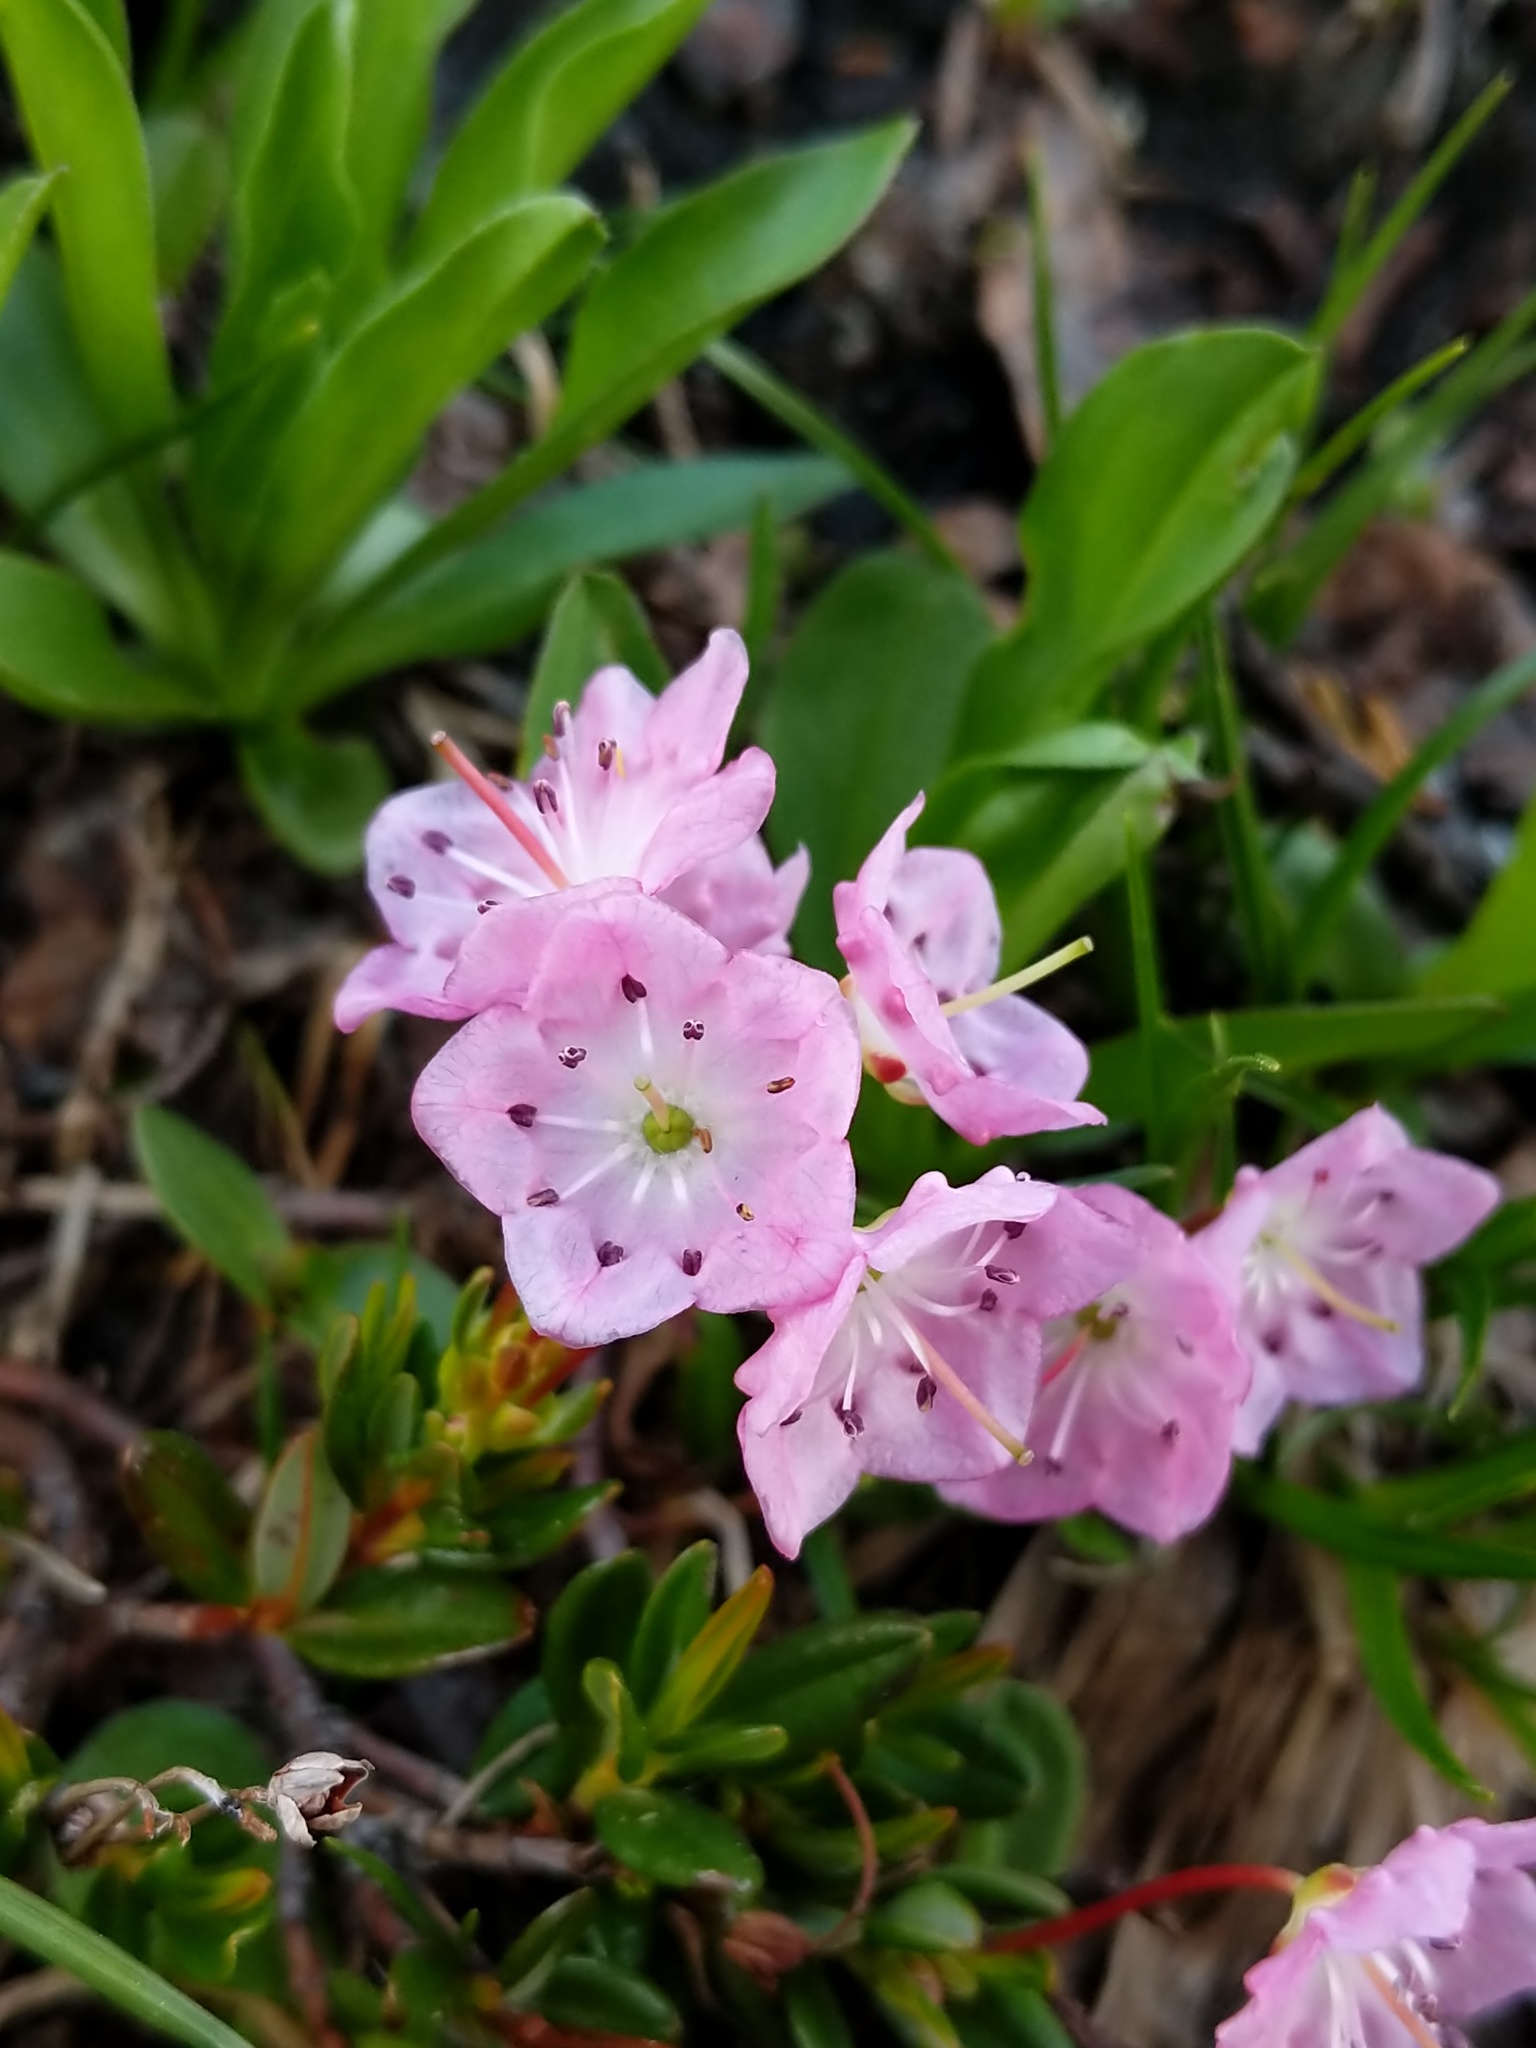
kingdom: Plantae
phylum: Tracheophyta
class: Magnoliopsida
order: Ericales
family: Ericaceae
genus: Kalmia
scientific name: Kalmia microphylla
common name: Alpine bog laurel
